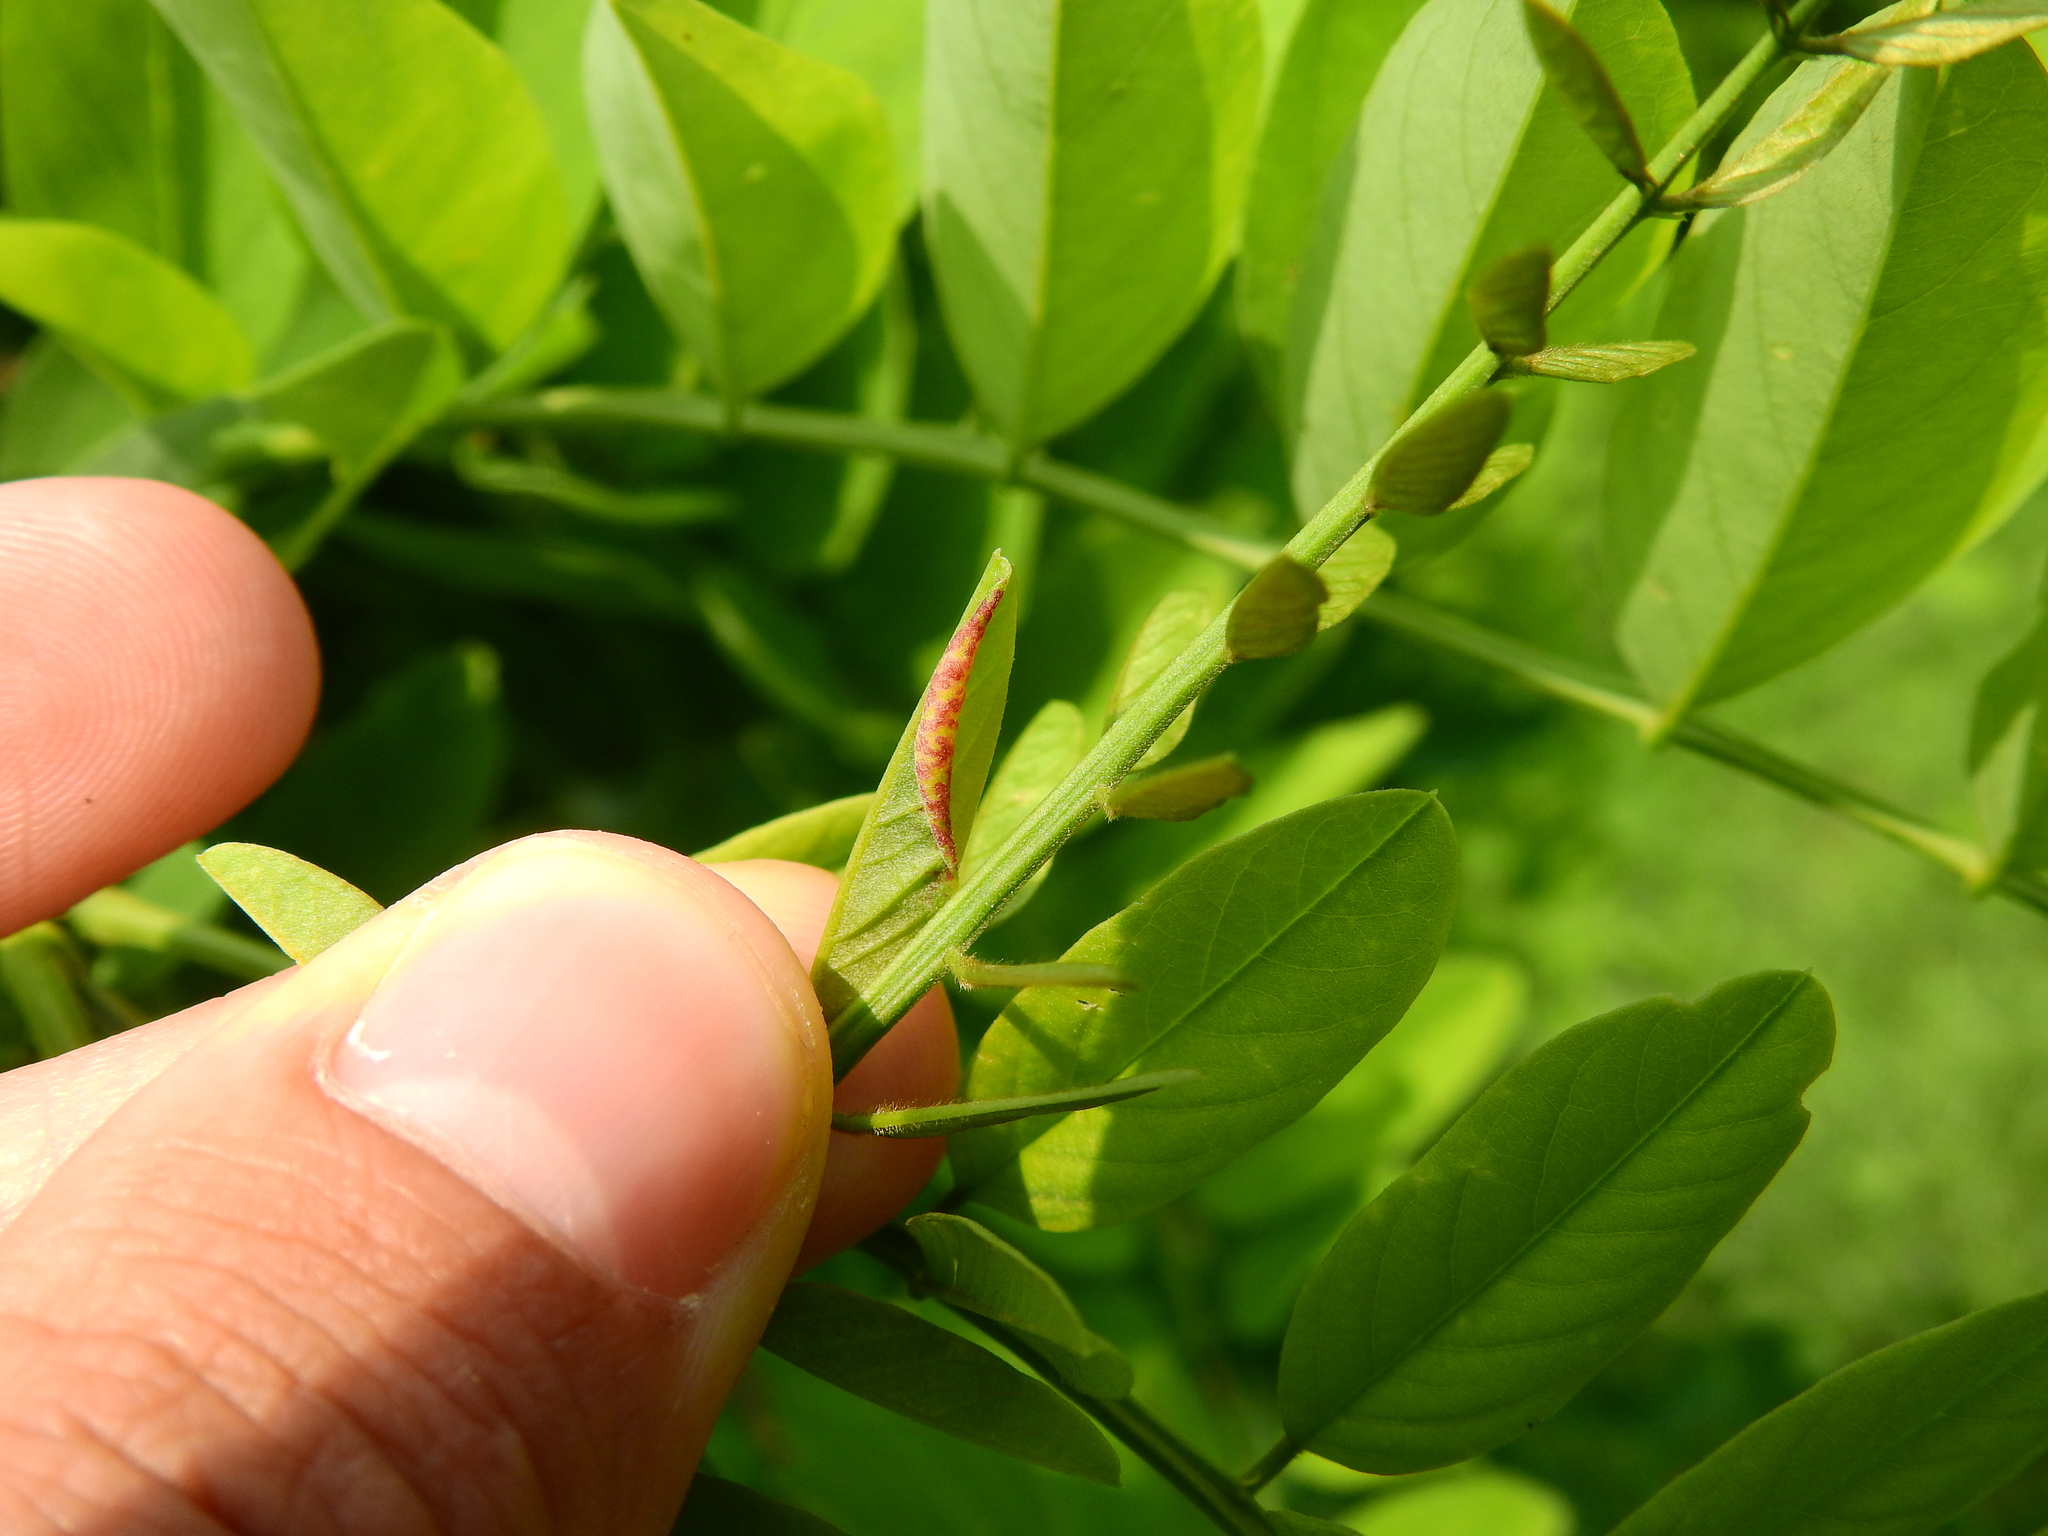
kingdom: Animalia
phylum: Arthropoda
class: Insecta
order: Diptera
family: Cecidomyiidae
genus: Obolodiplosis
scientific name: Obolodiplosis robiniae
